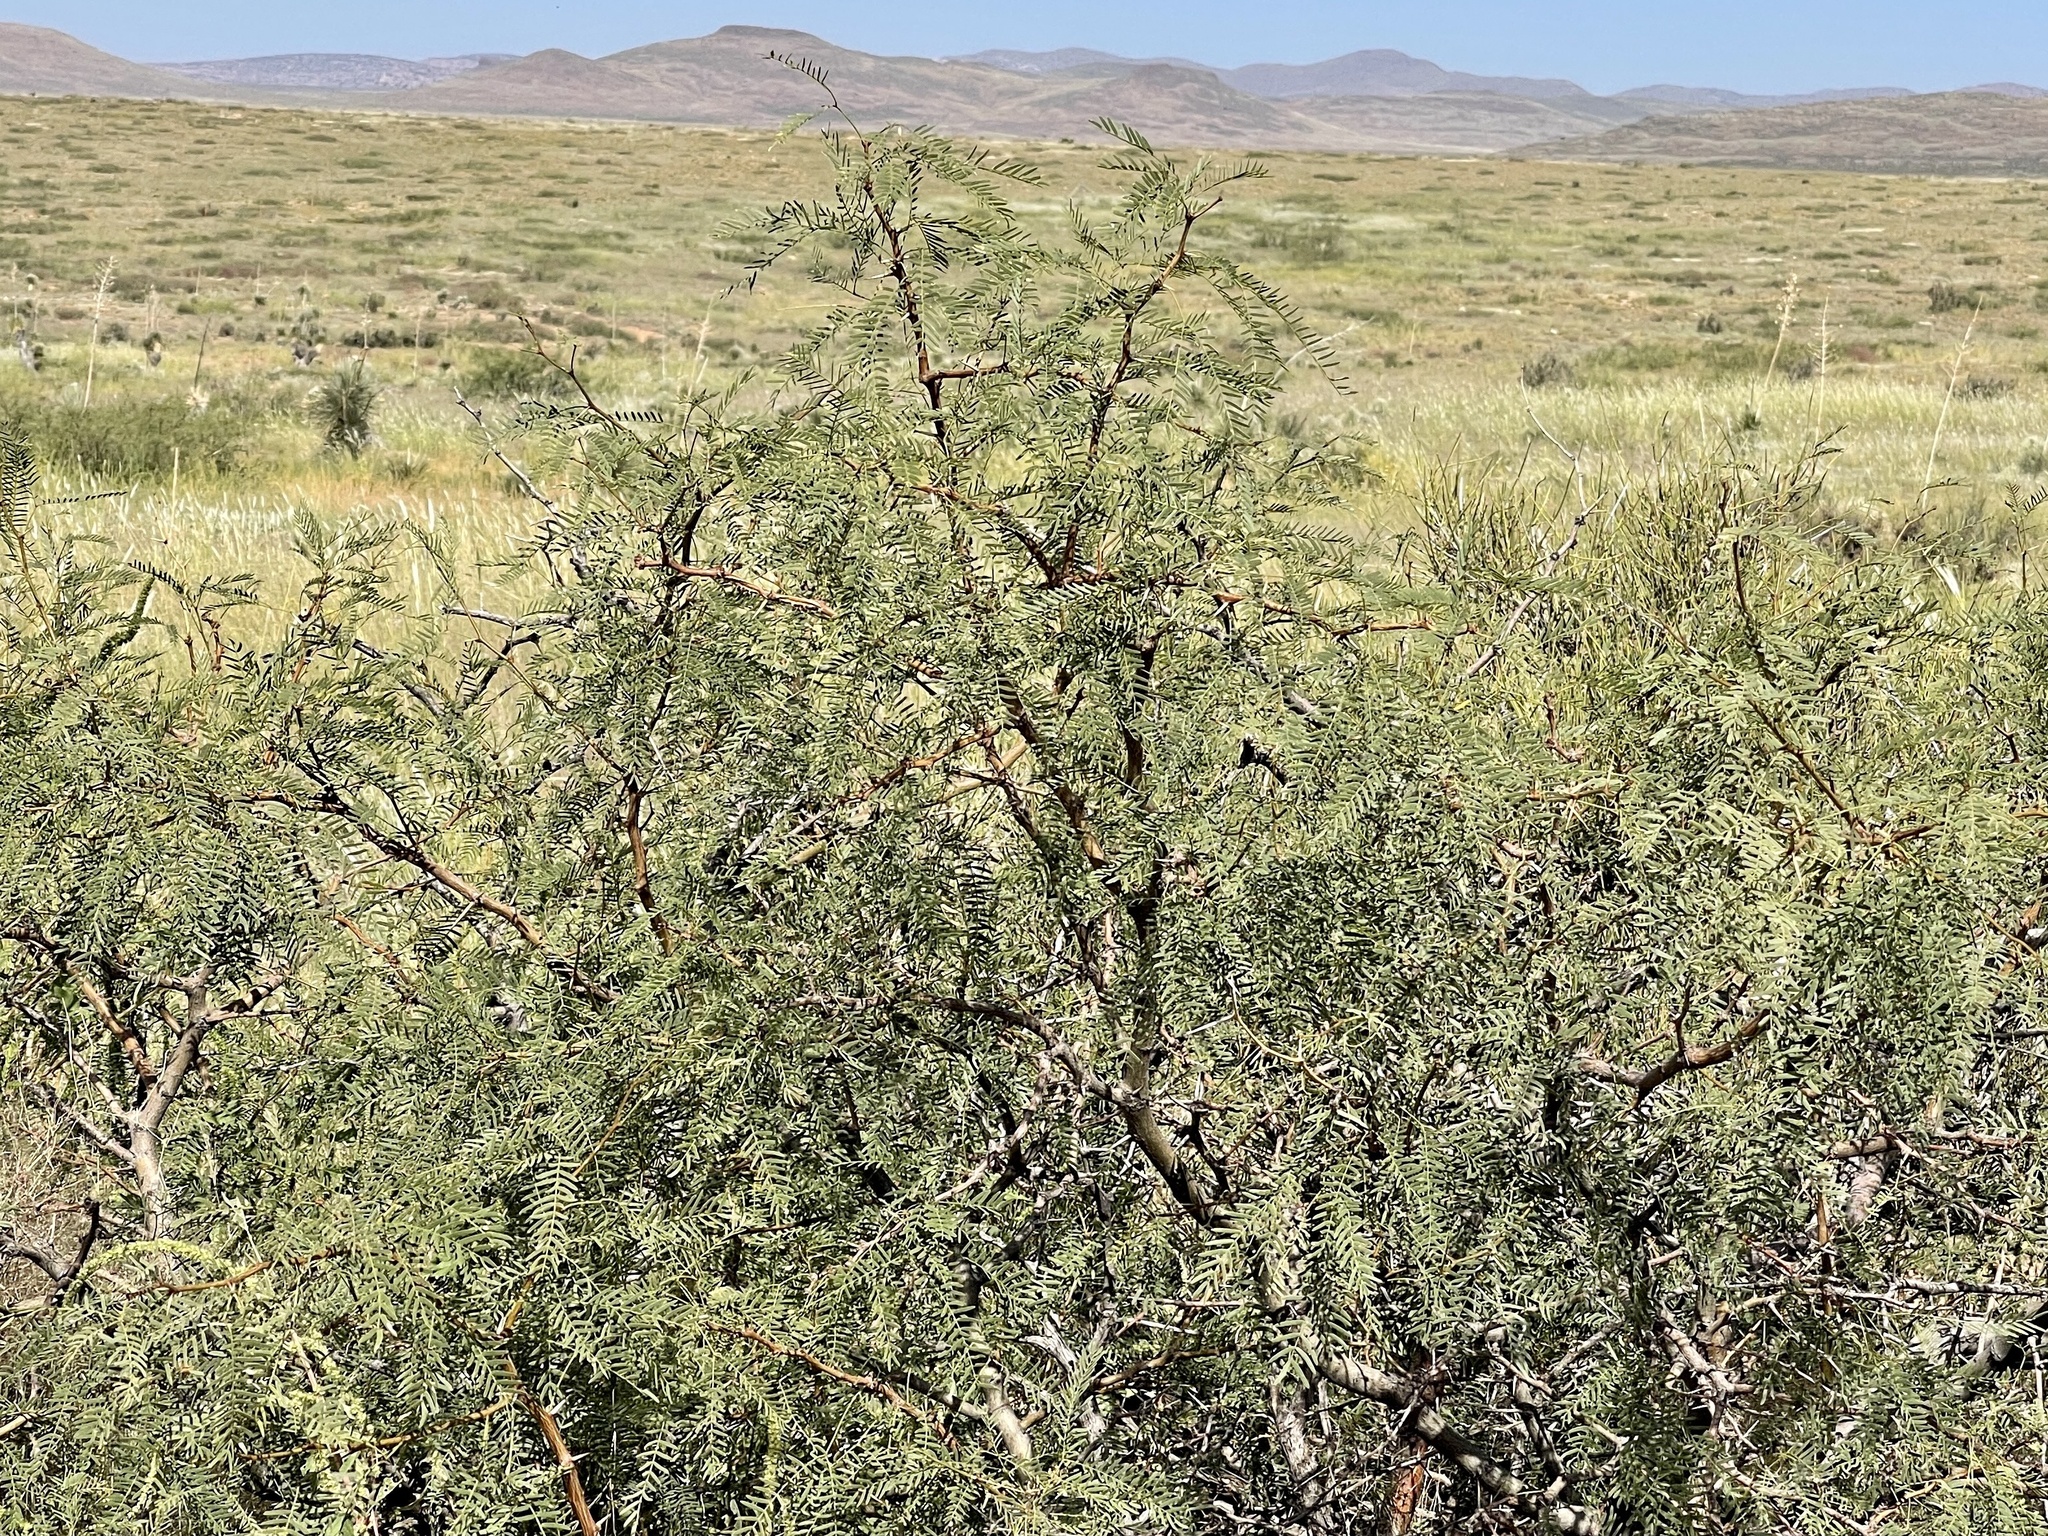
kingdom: Plantae
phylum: Tracheophyta
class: Magnoliopsida
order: Fabales
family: Fabaceae
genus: Prosopis
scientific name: Prosopis glandulosa
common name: Honey mesquite
